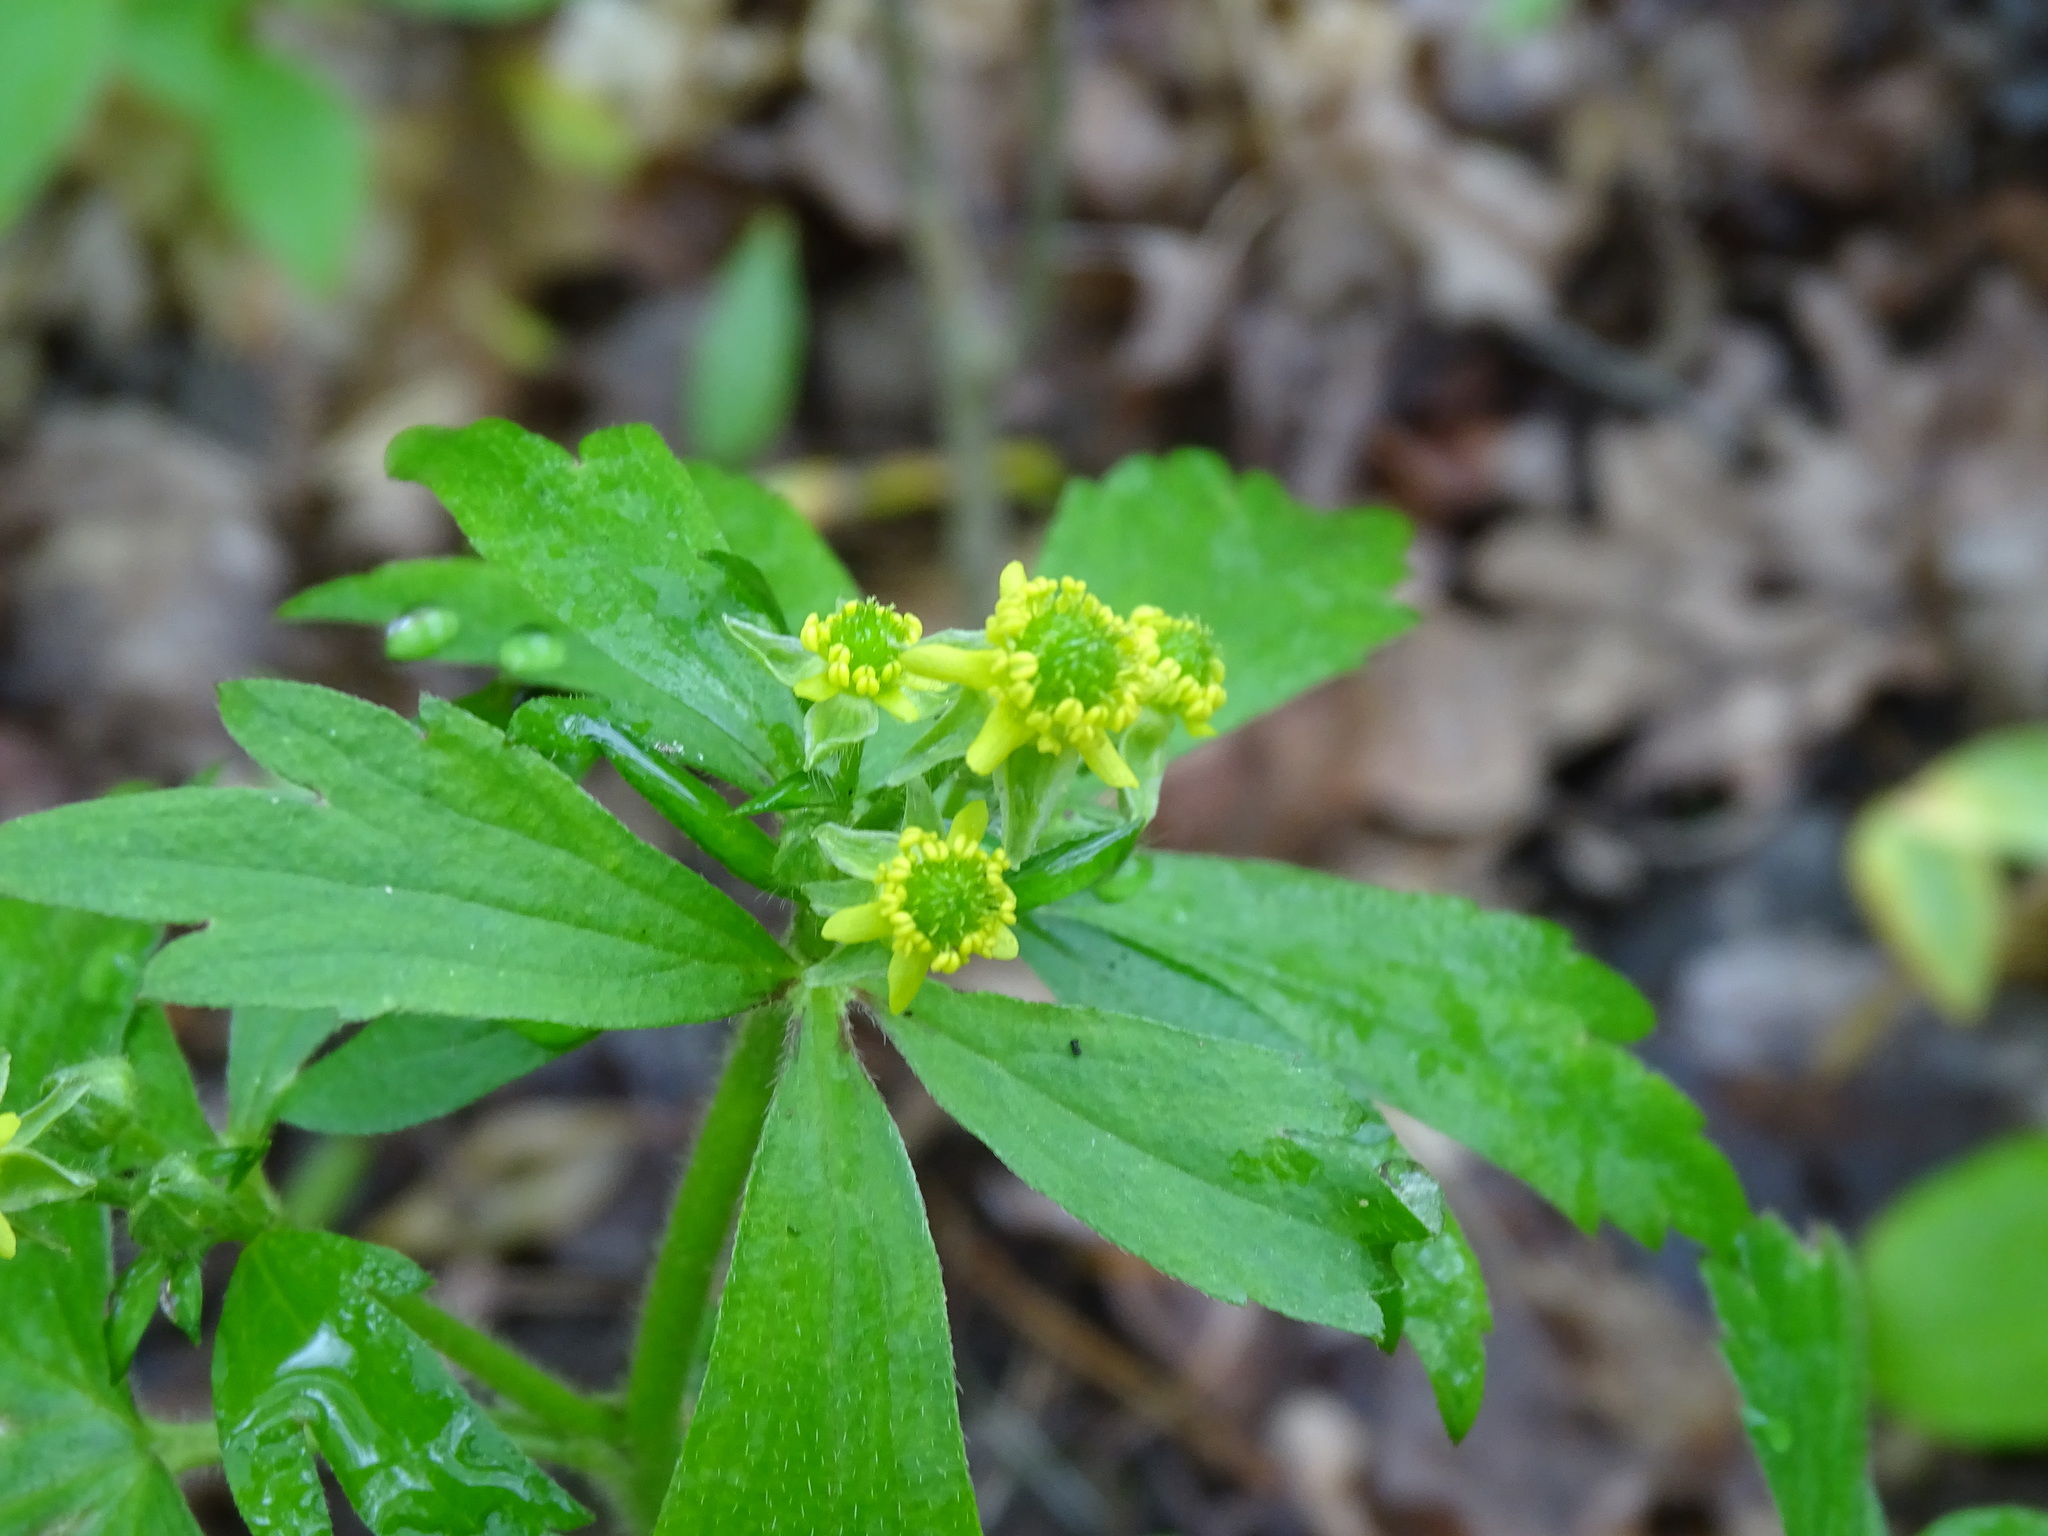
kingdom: Plantae
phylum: Tracheophyta
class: Magnoliopsida
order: Ranunculales
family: Ranunculaceae
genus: Ranunculus
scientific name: Ranunculus recurvatus
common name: Blisterwort
